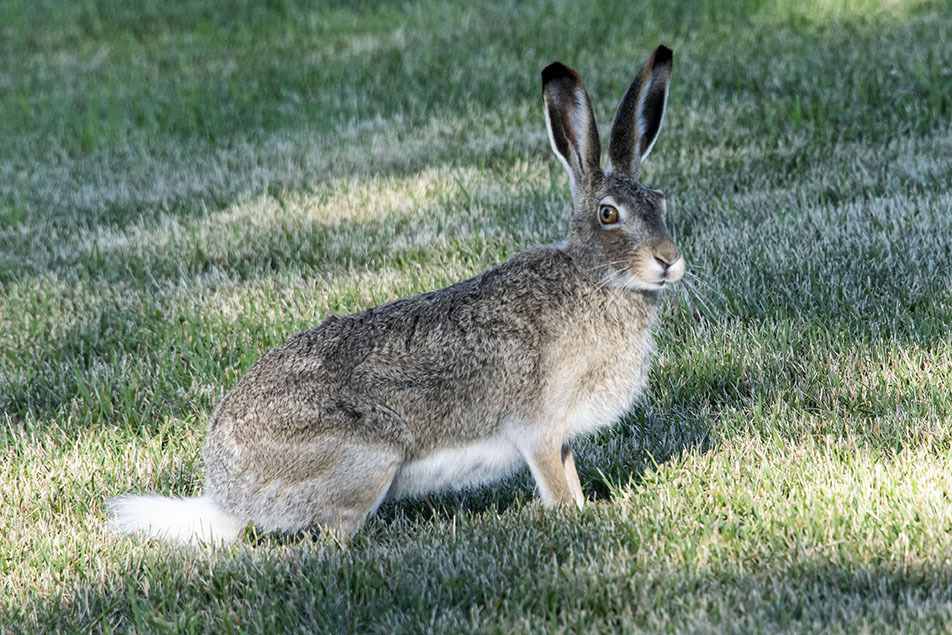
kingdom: Animalia
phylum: Chordata
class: Mammalia
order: Lagomorpha
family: Leporidae
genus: Lepus
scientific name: Lepus townsendii
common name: White-tailed jackrabbit
